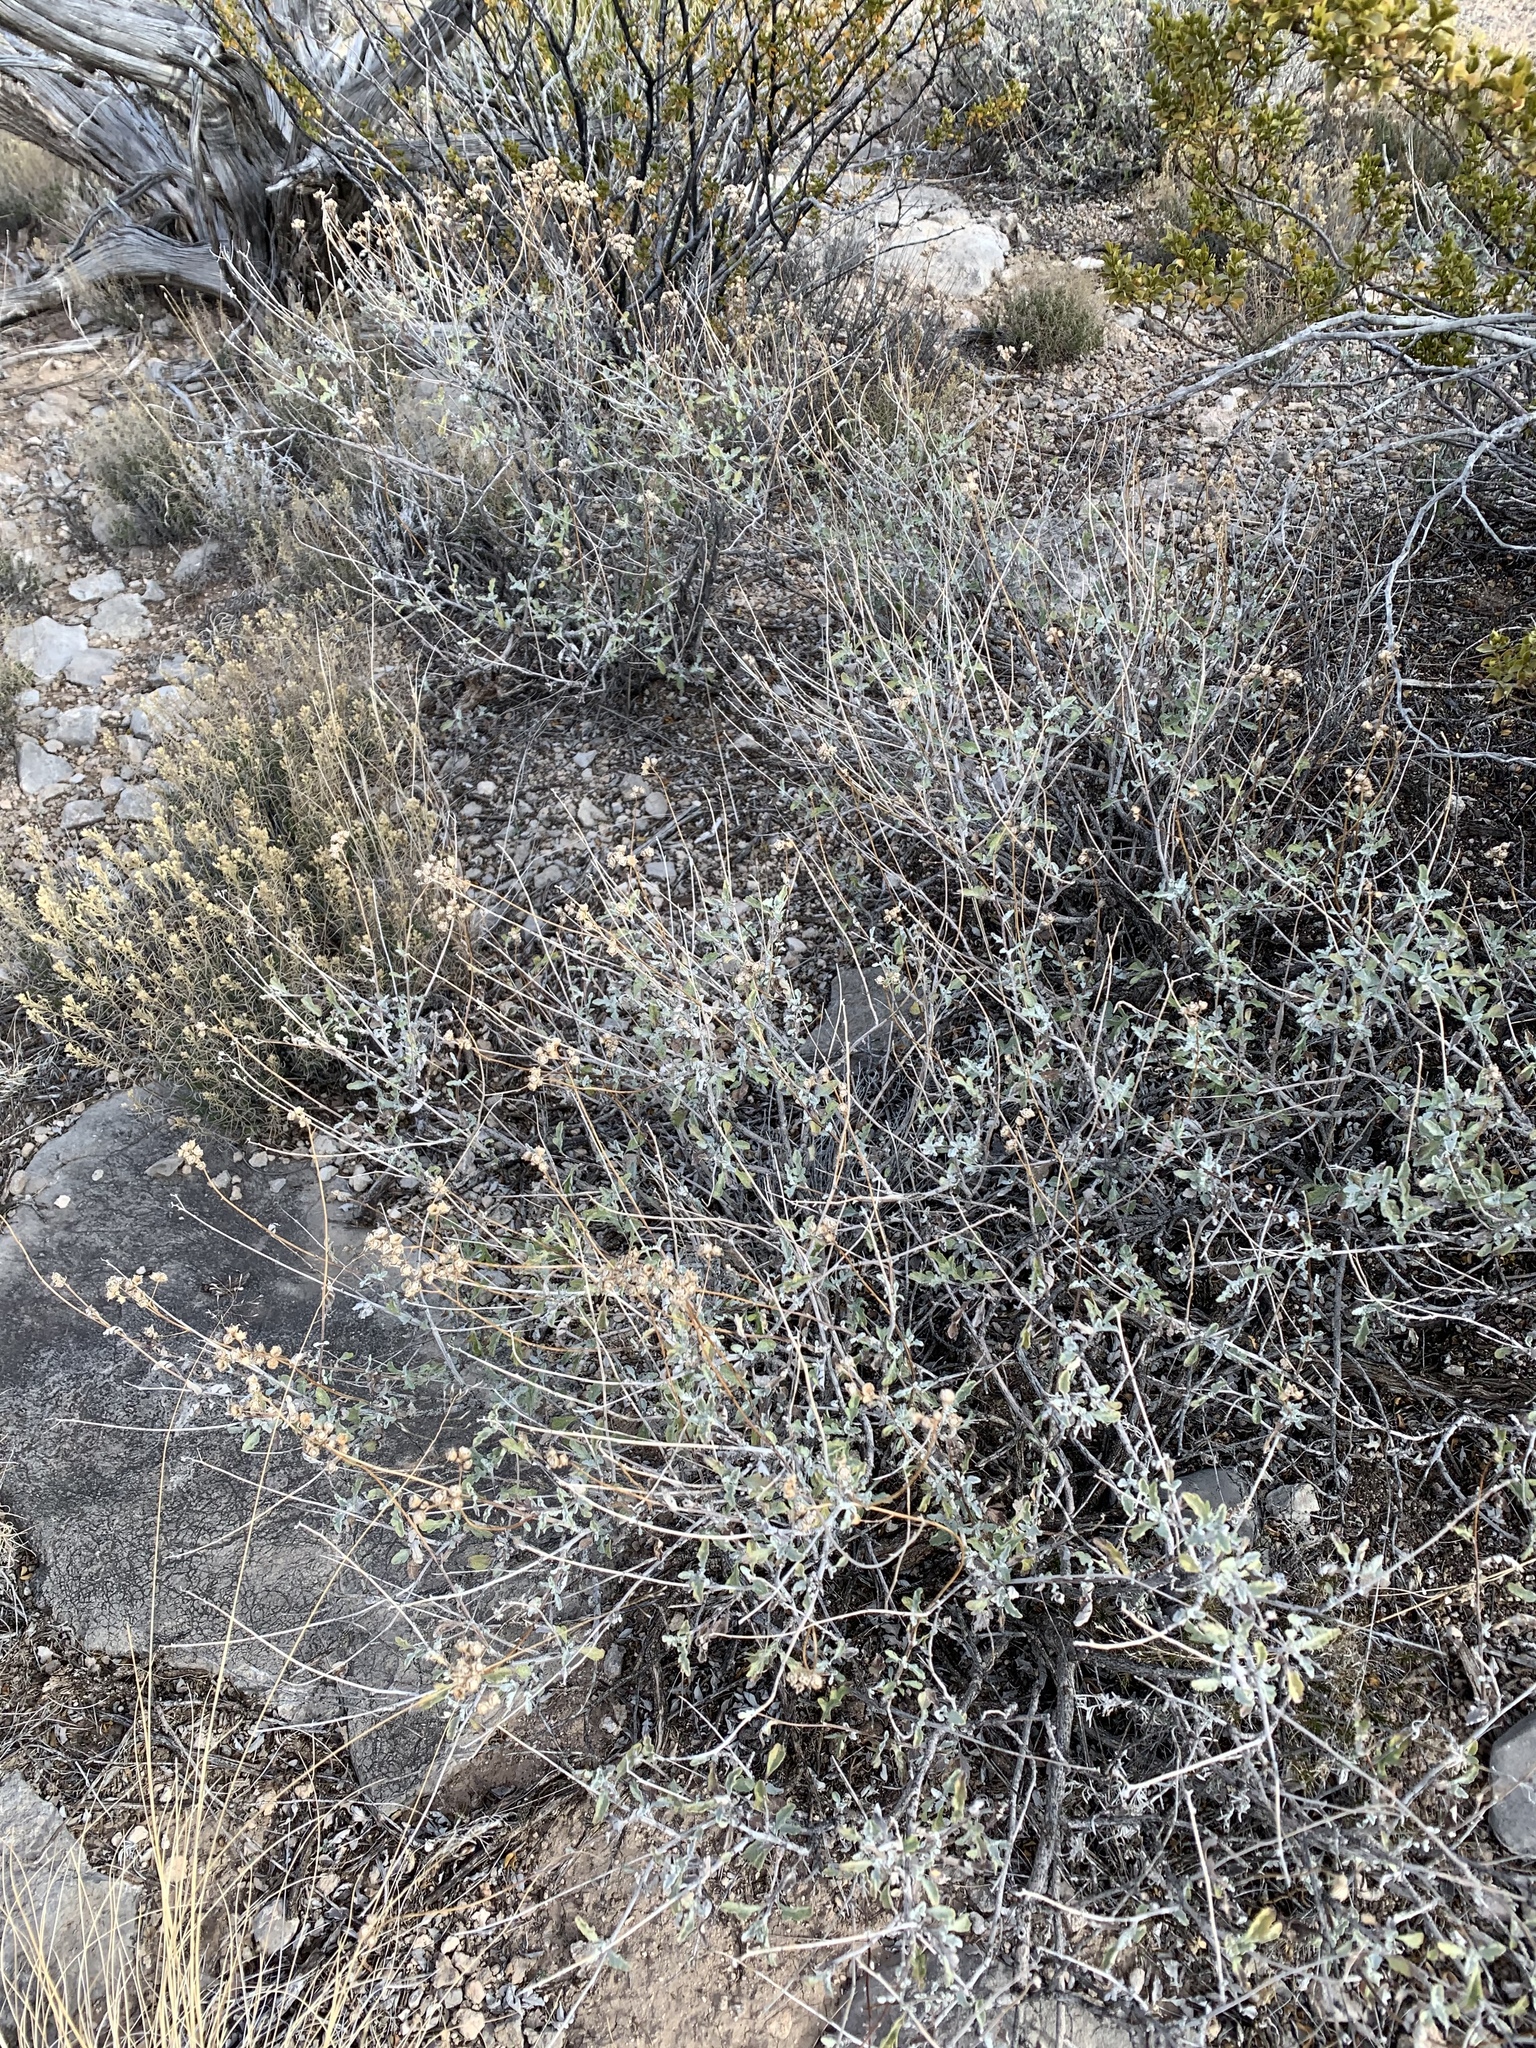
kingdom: Plantae
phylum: Tracheophyta
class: Magnoliopsida
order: Asterales
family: Asteraceae
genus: Parthenium
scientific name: Parthenium incanum
